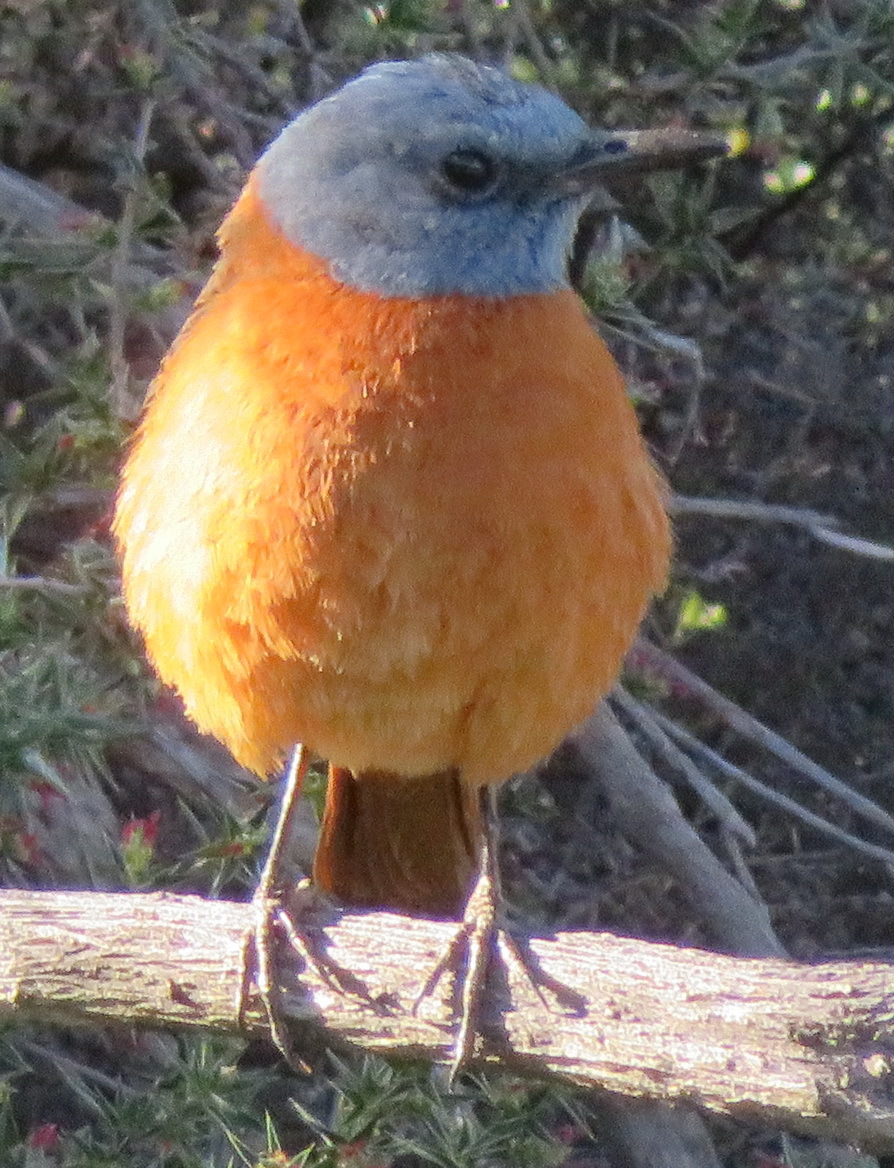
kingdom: Animalia
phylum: Chordata
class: Aves
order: Passeriformes
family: Muscicapidae
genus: Monticola
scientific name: Monticola rupestris
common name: Cape rock thrush
